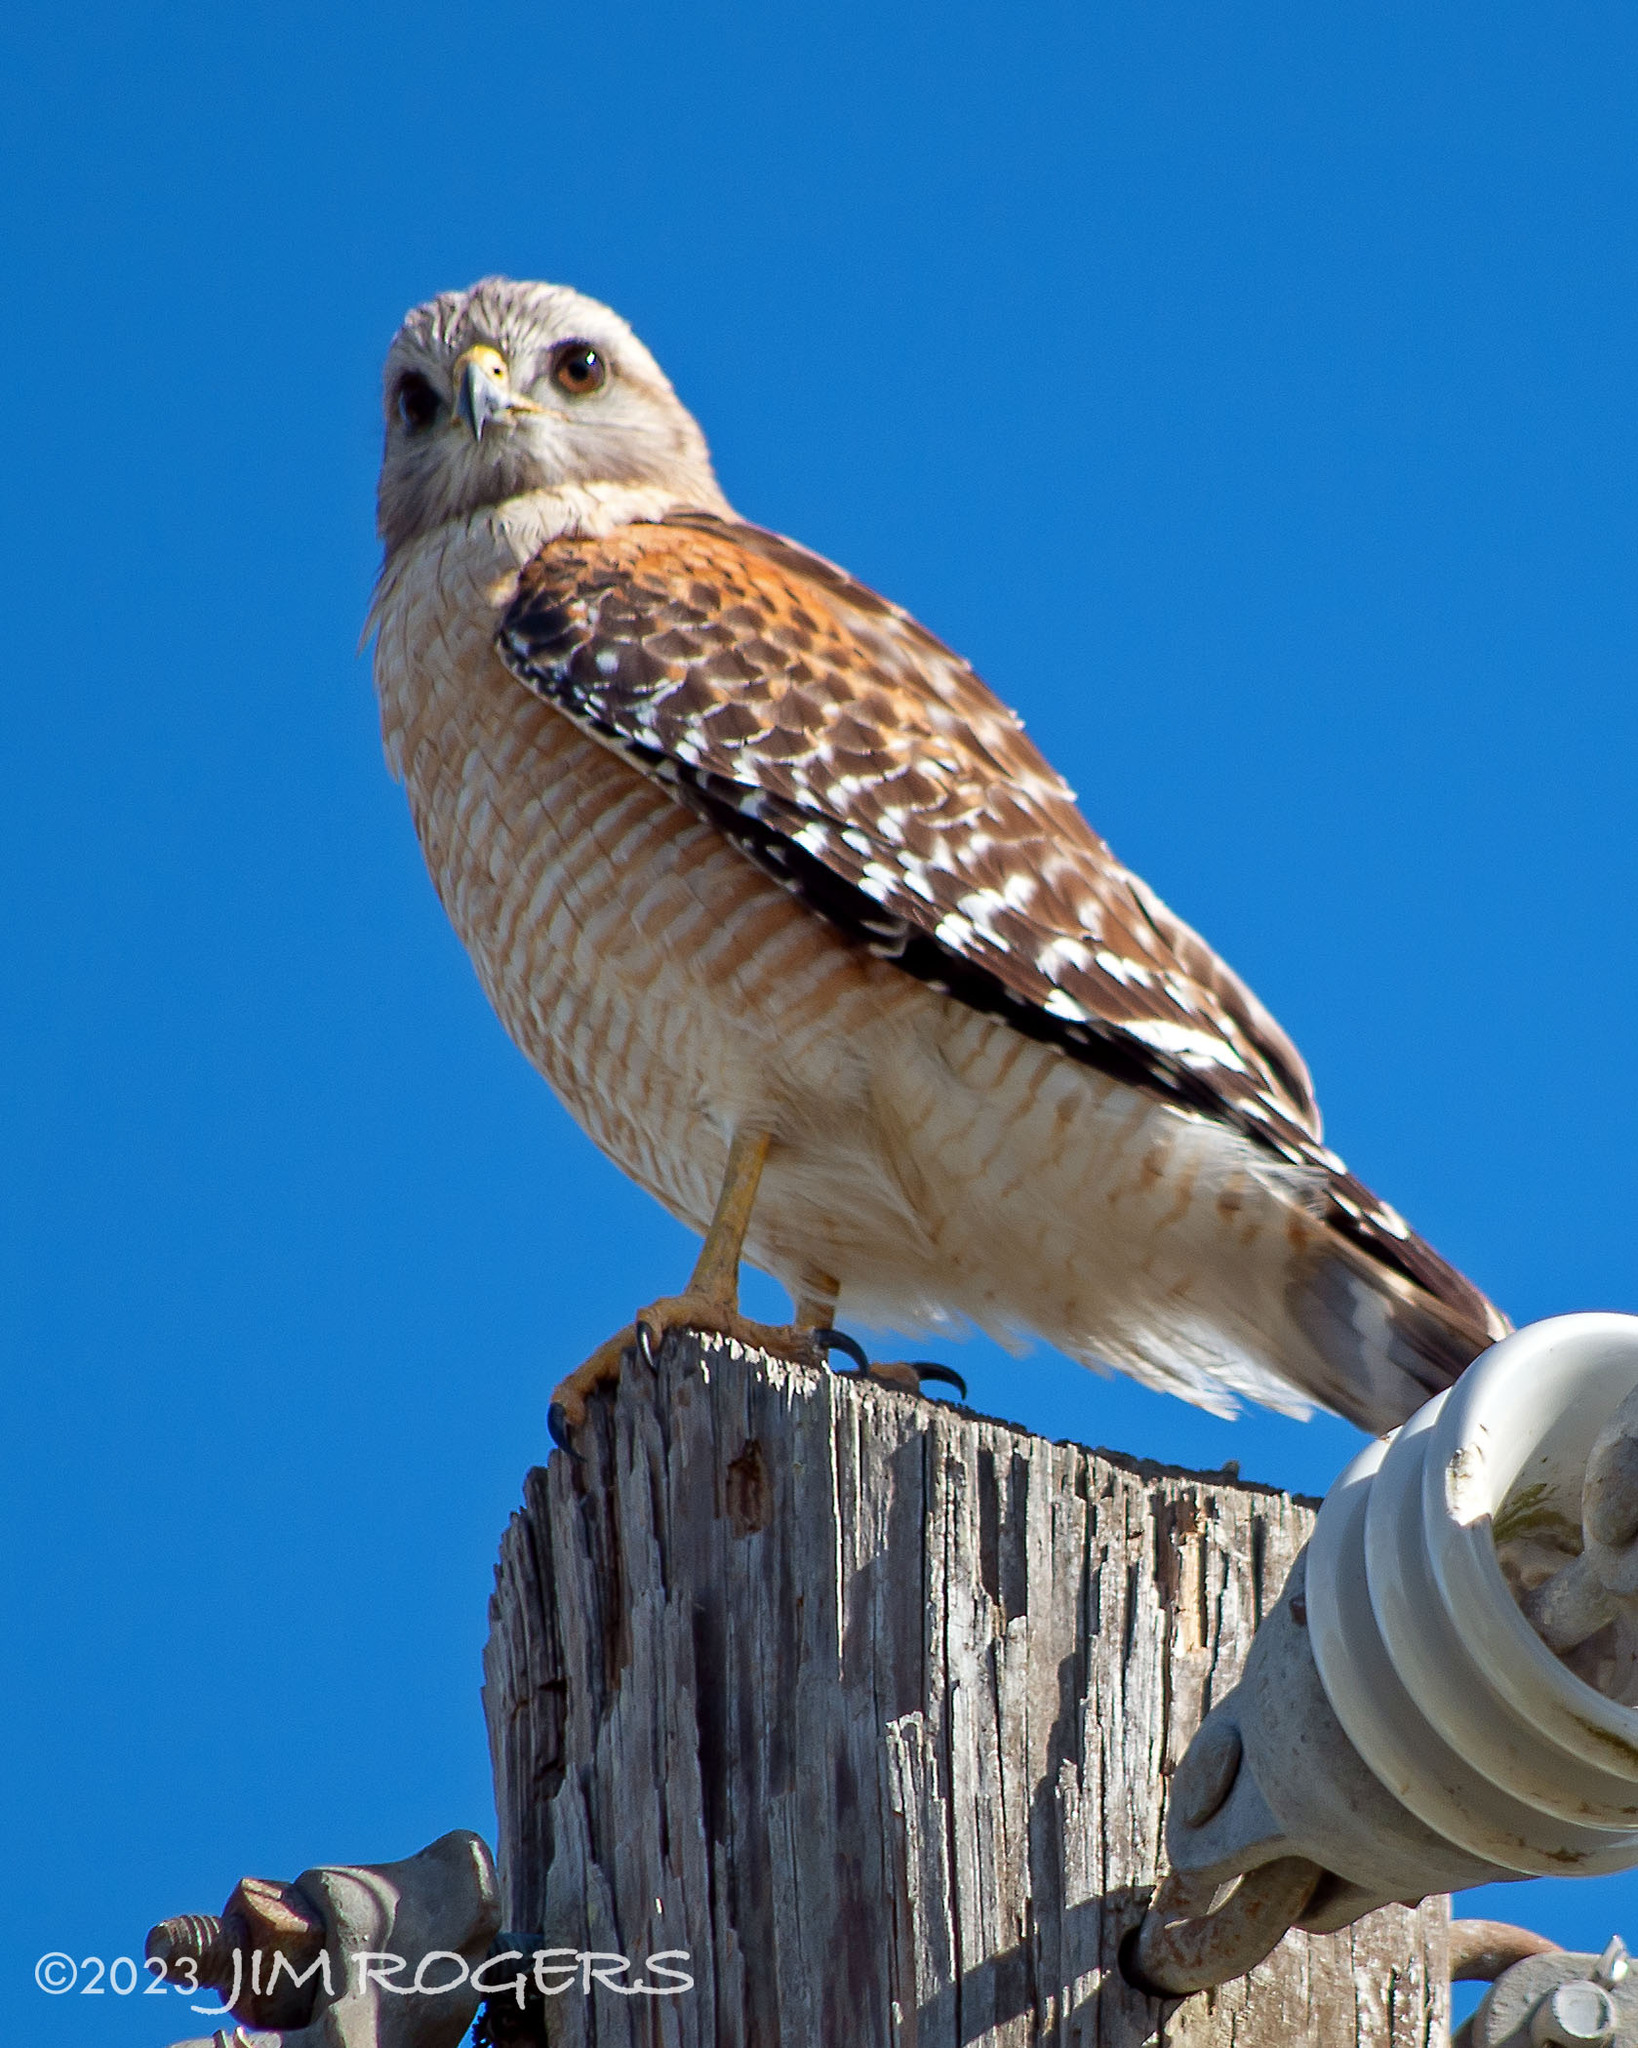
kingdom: Animalia
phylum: Chordata
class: Aves
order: Accipitriformes
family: Accipitridae
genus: Buteo
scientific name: Buteo lineatus
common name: Red-shouldered hawk
